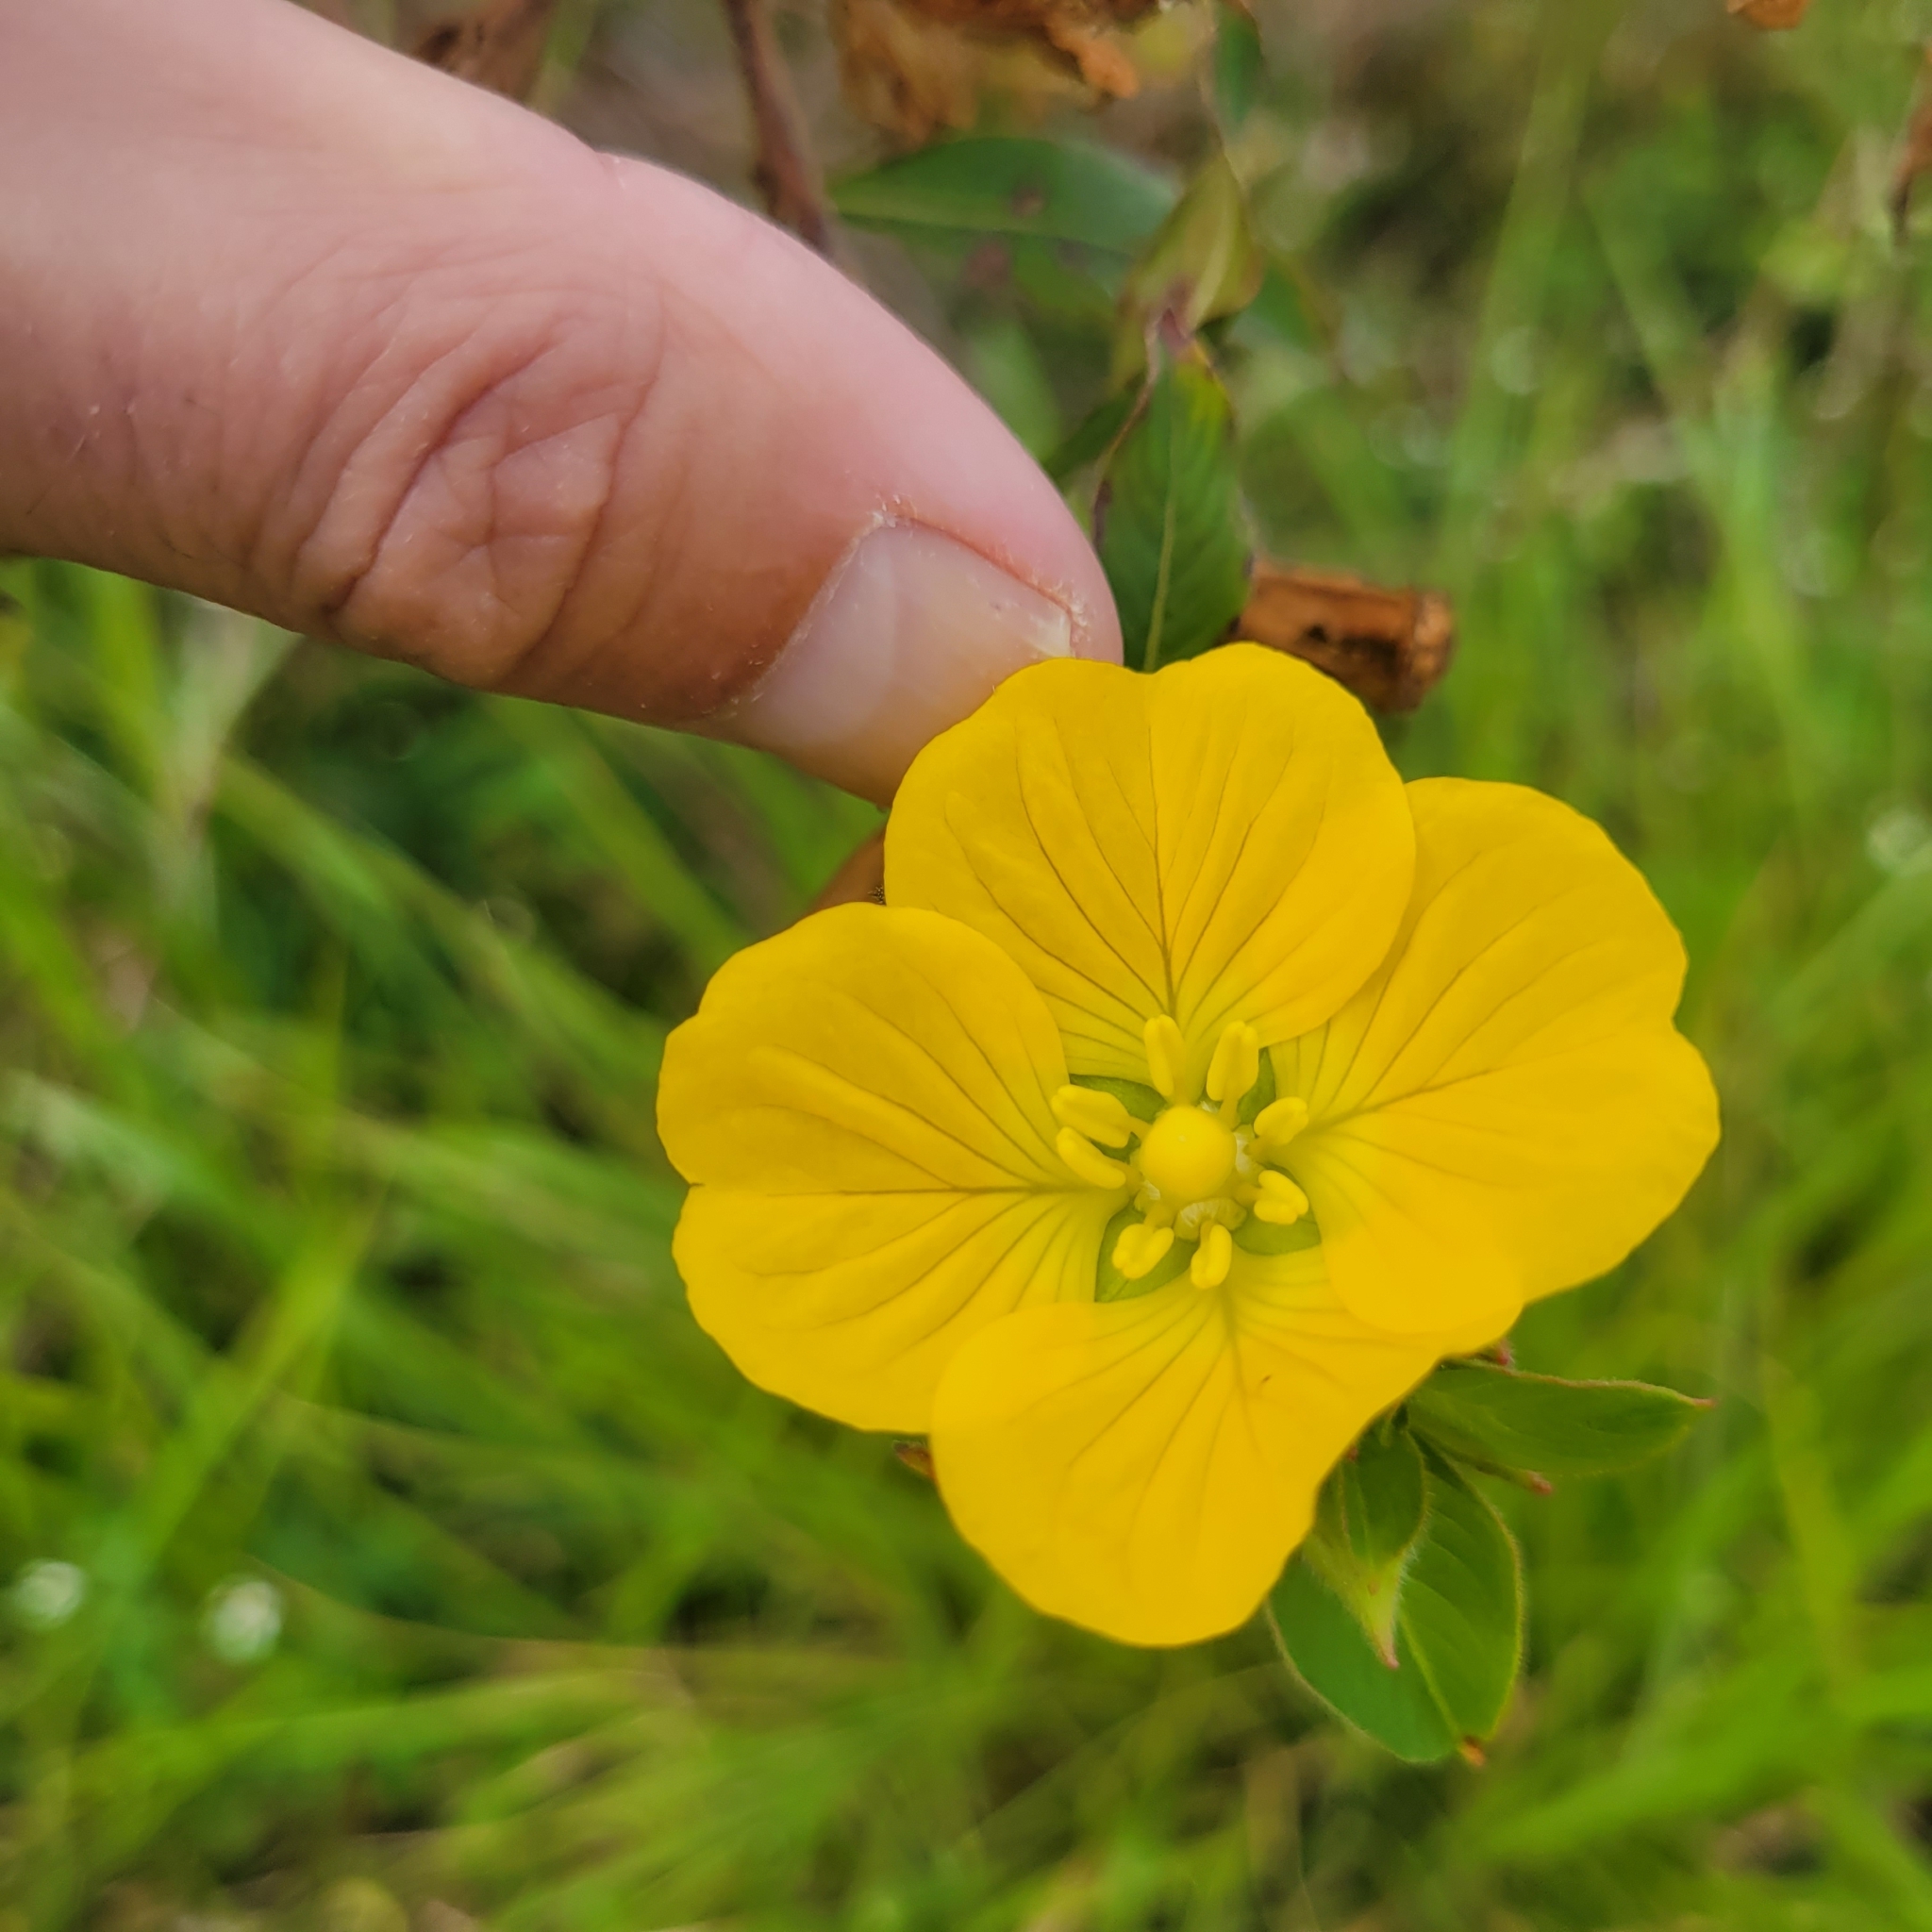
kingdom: Plantae
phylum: Tracheophyta
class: Magnoliopsida
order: Myrtales
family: Onagraceae
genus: Ludwigia
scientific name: Ludwigia peruviana
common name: Peruvian primrose-willow
